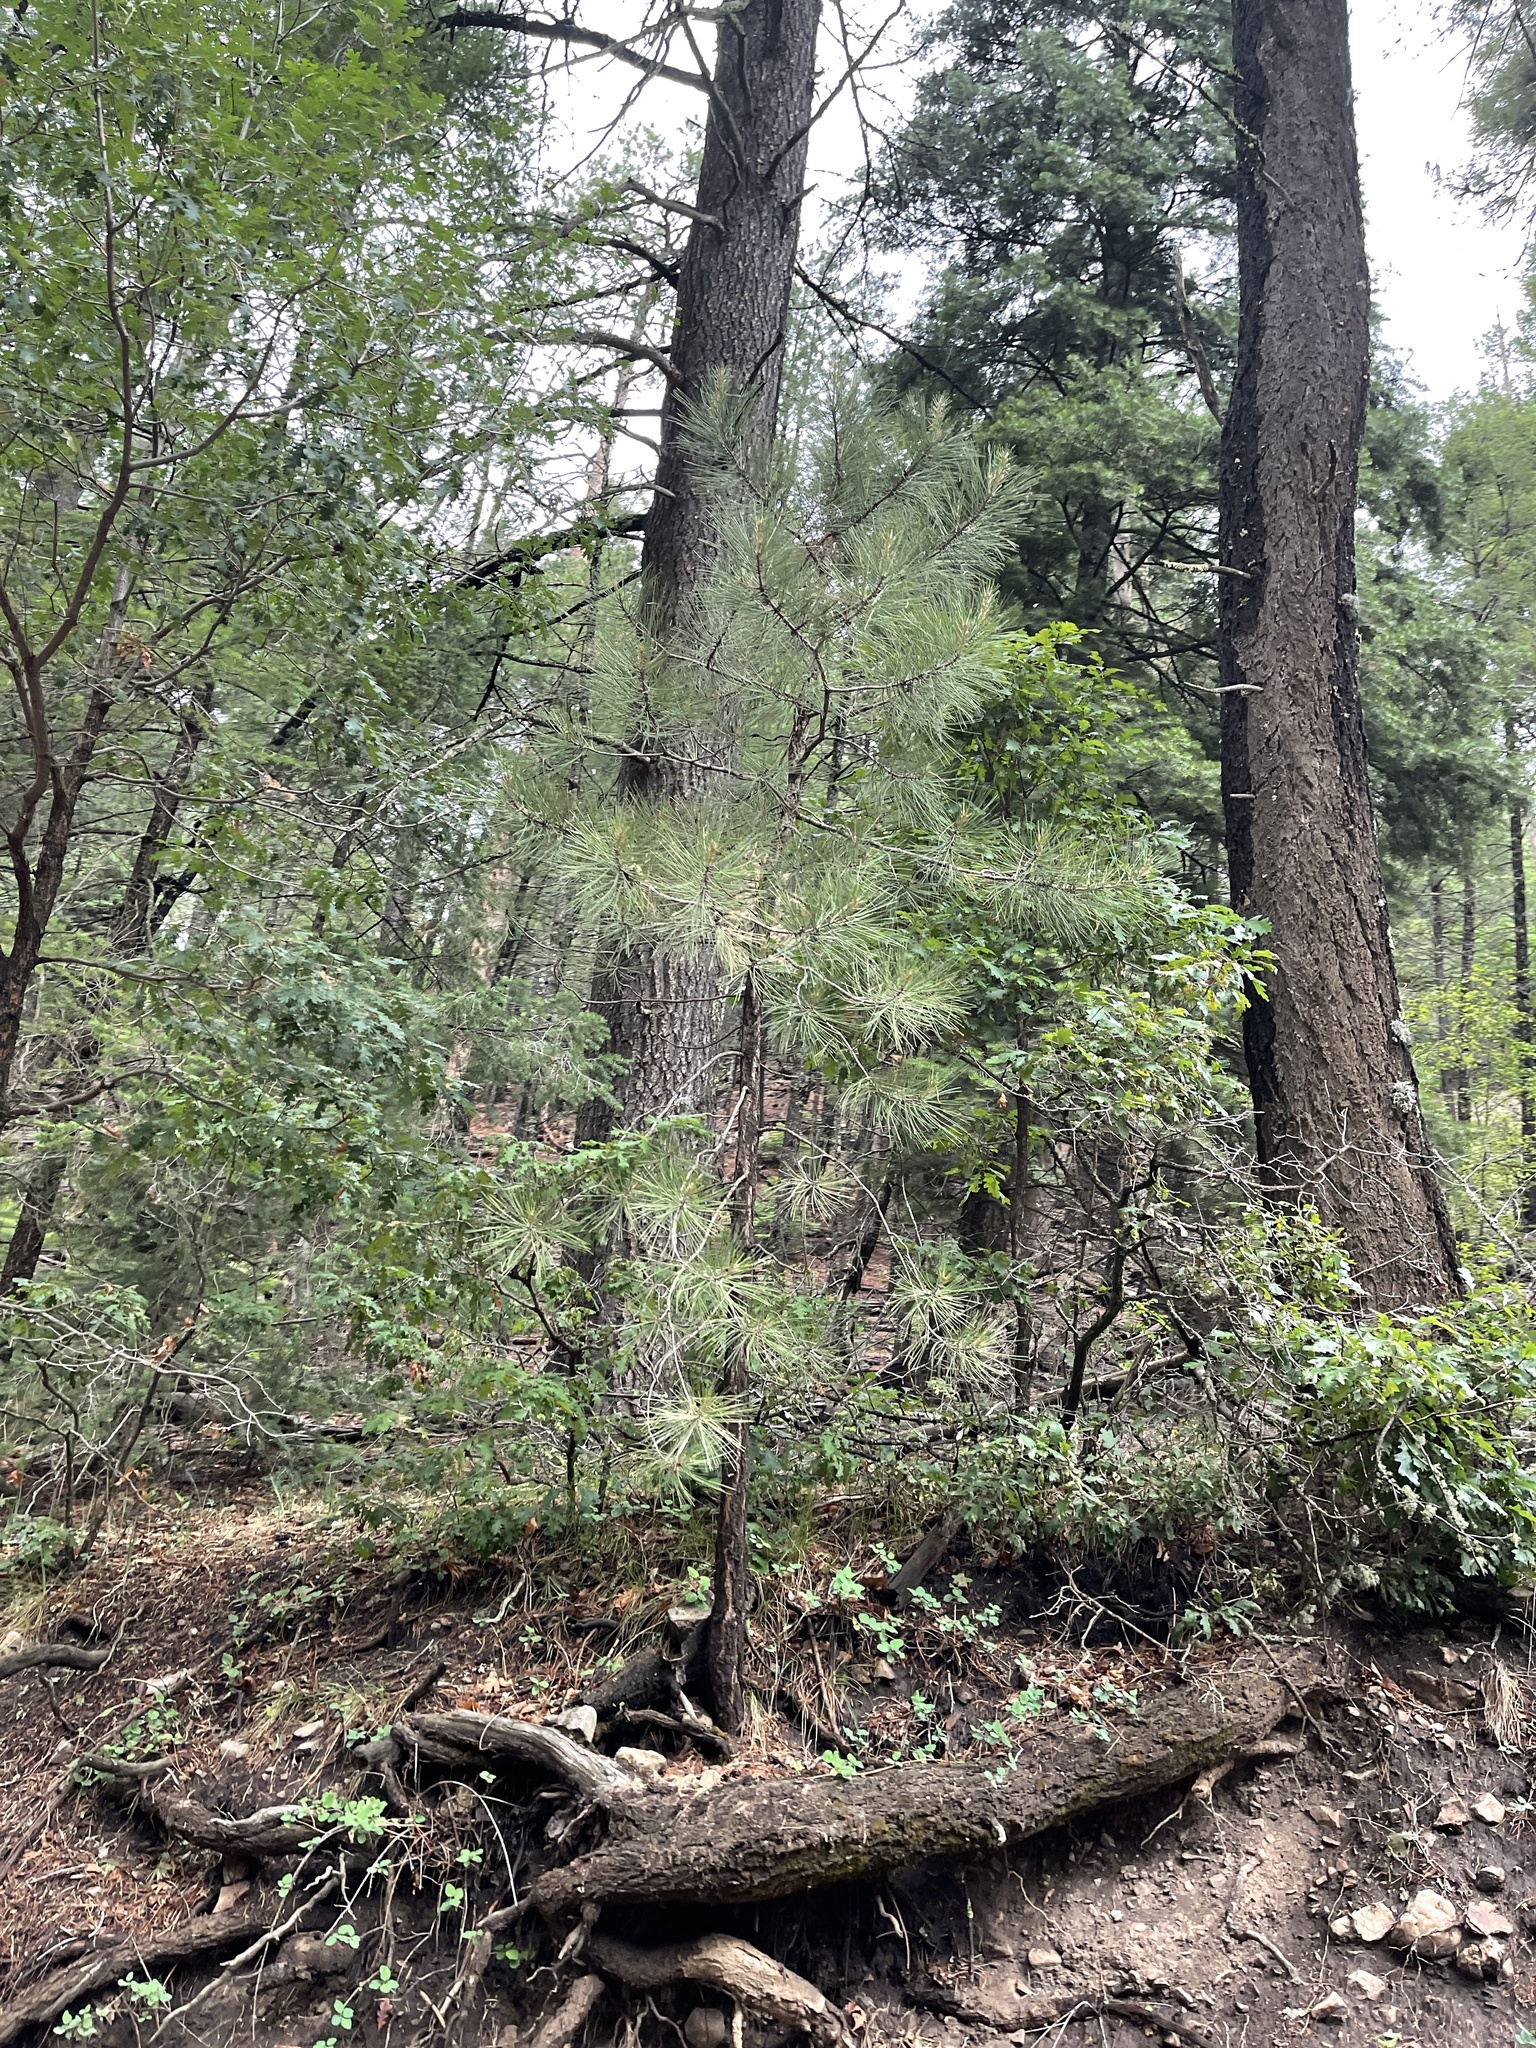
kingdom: Plantae
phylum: Tracheophyta
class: Pinopsida
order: Pinales
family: Pinaceae
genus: Pinus
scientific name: Pinus ponderosa
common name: Western yellow-pine
